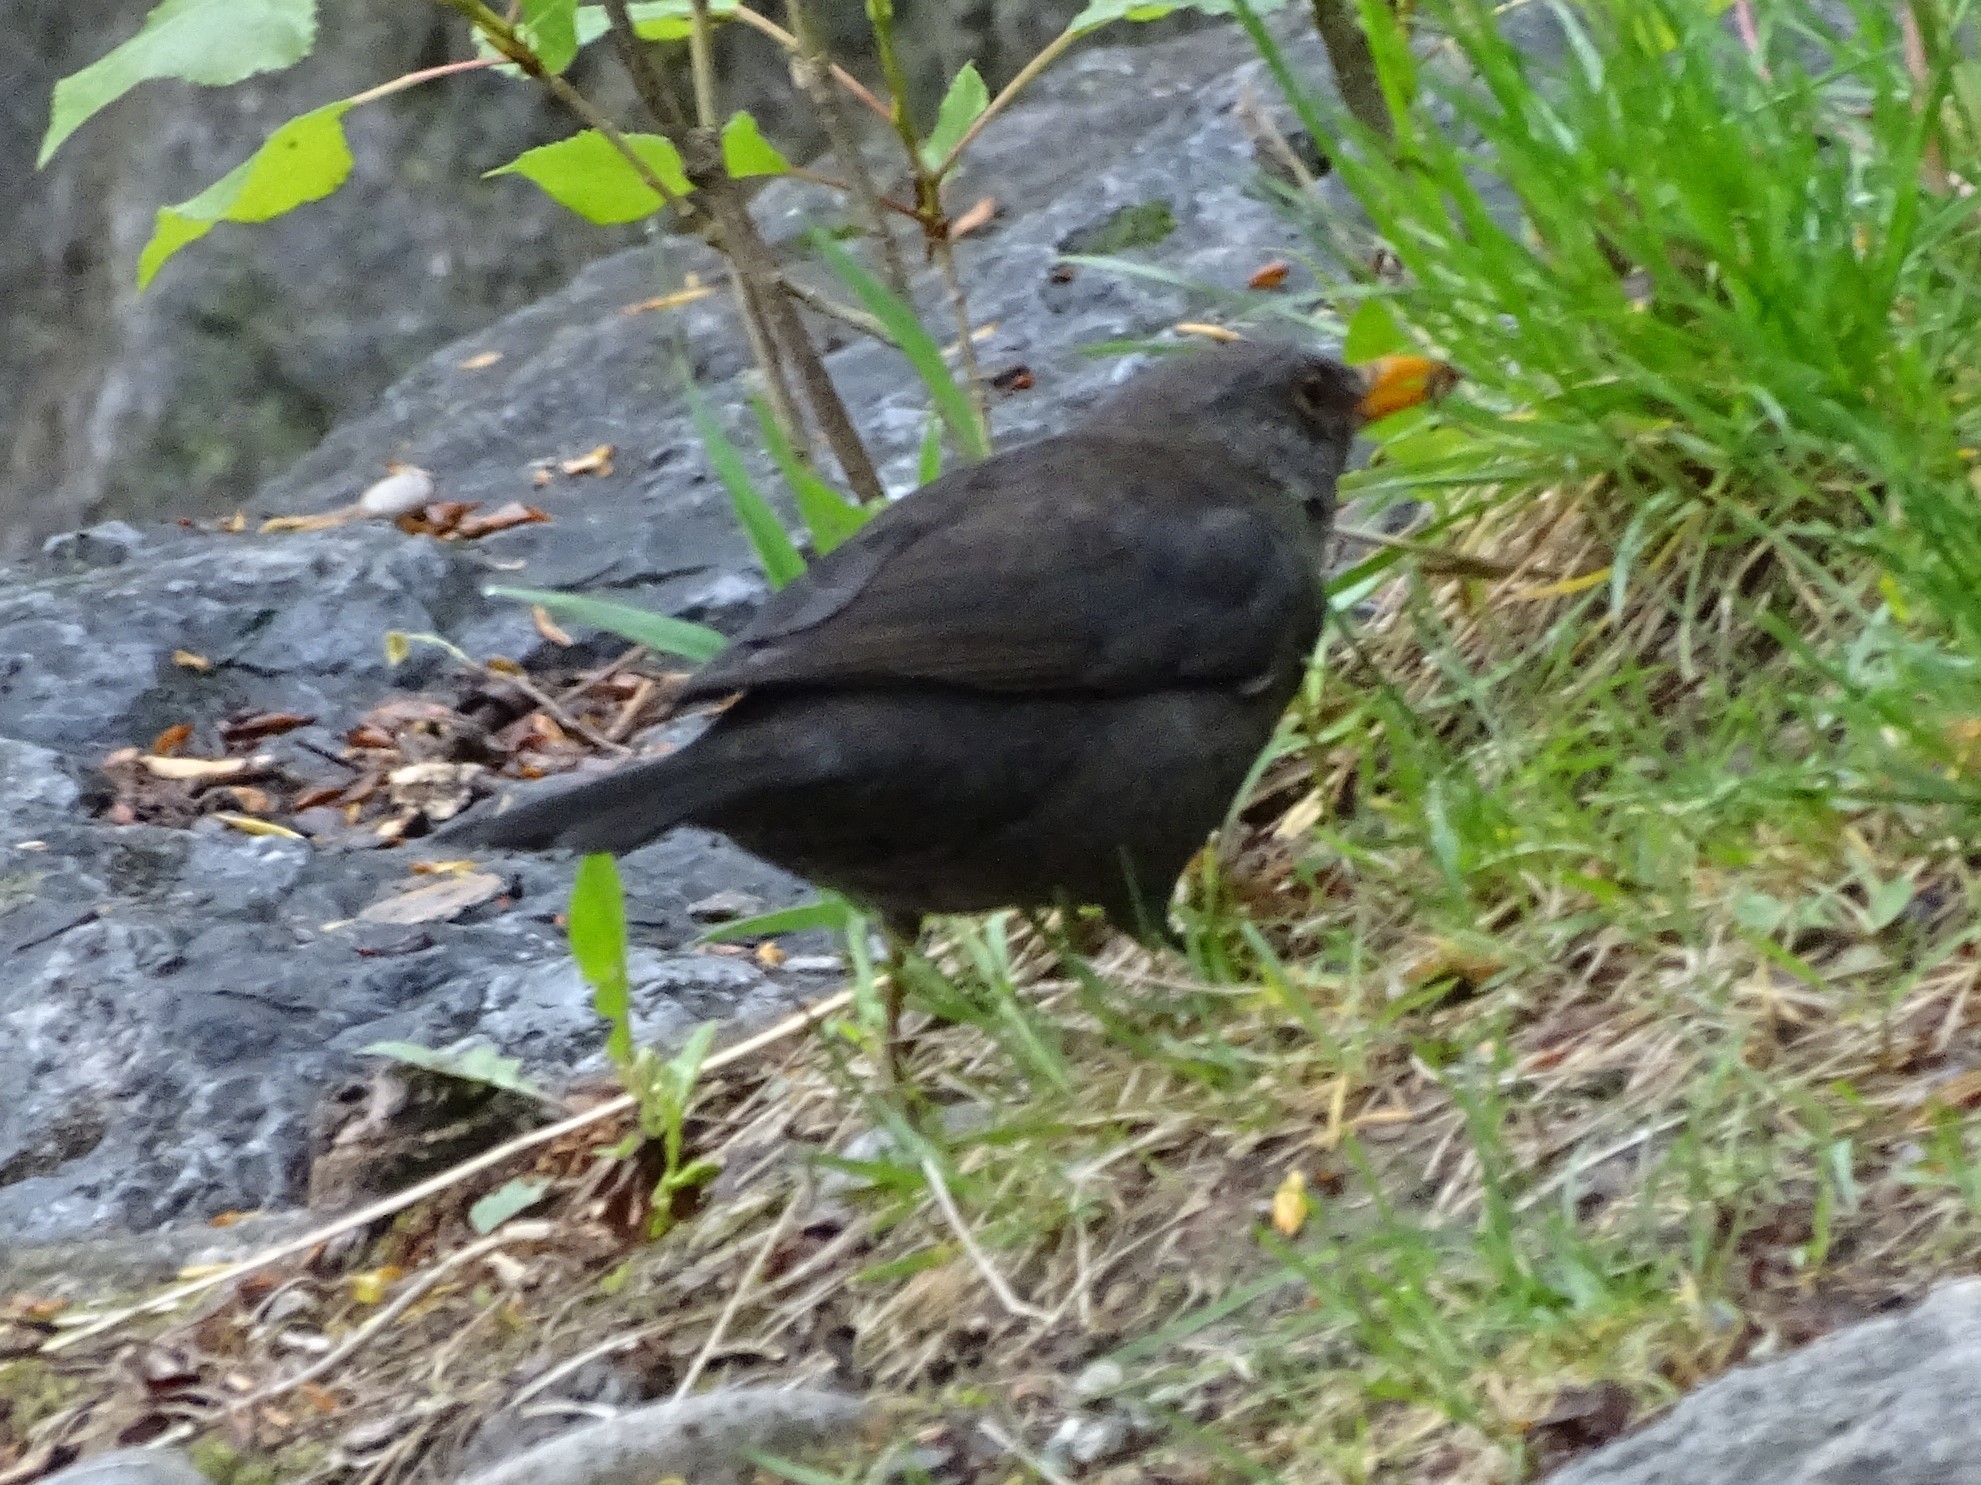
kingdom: Animalia
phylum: Chordata
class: Aves
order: Passeriformes
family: Turdidae
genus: Turdus
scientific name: Turdus merula
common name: Common blackbird
